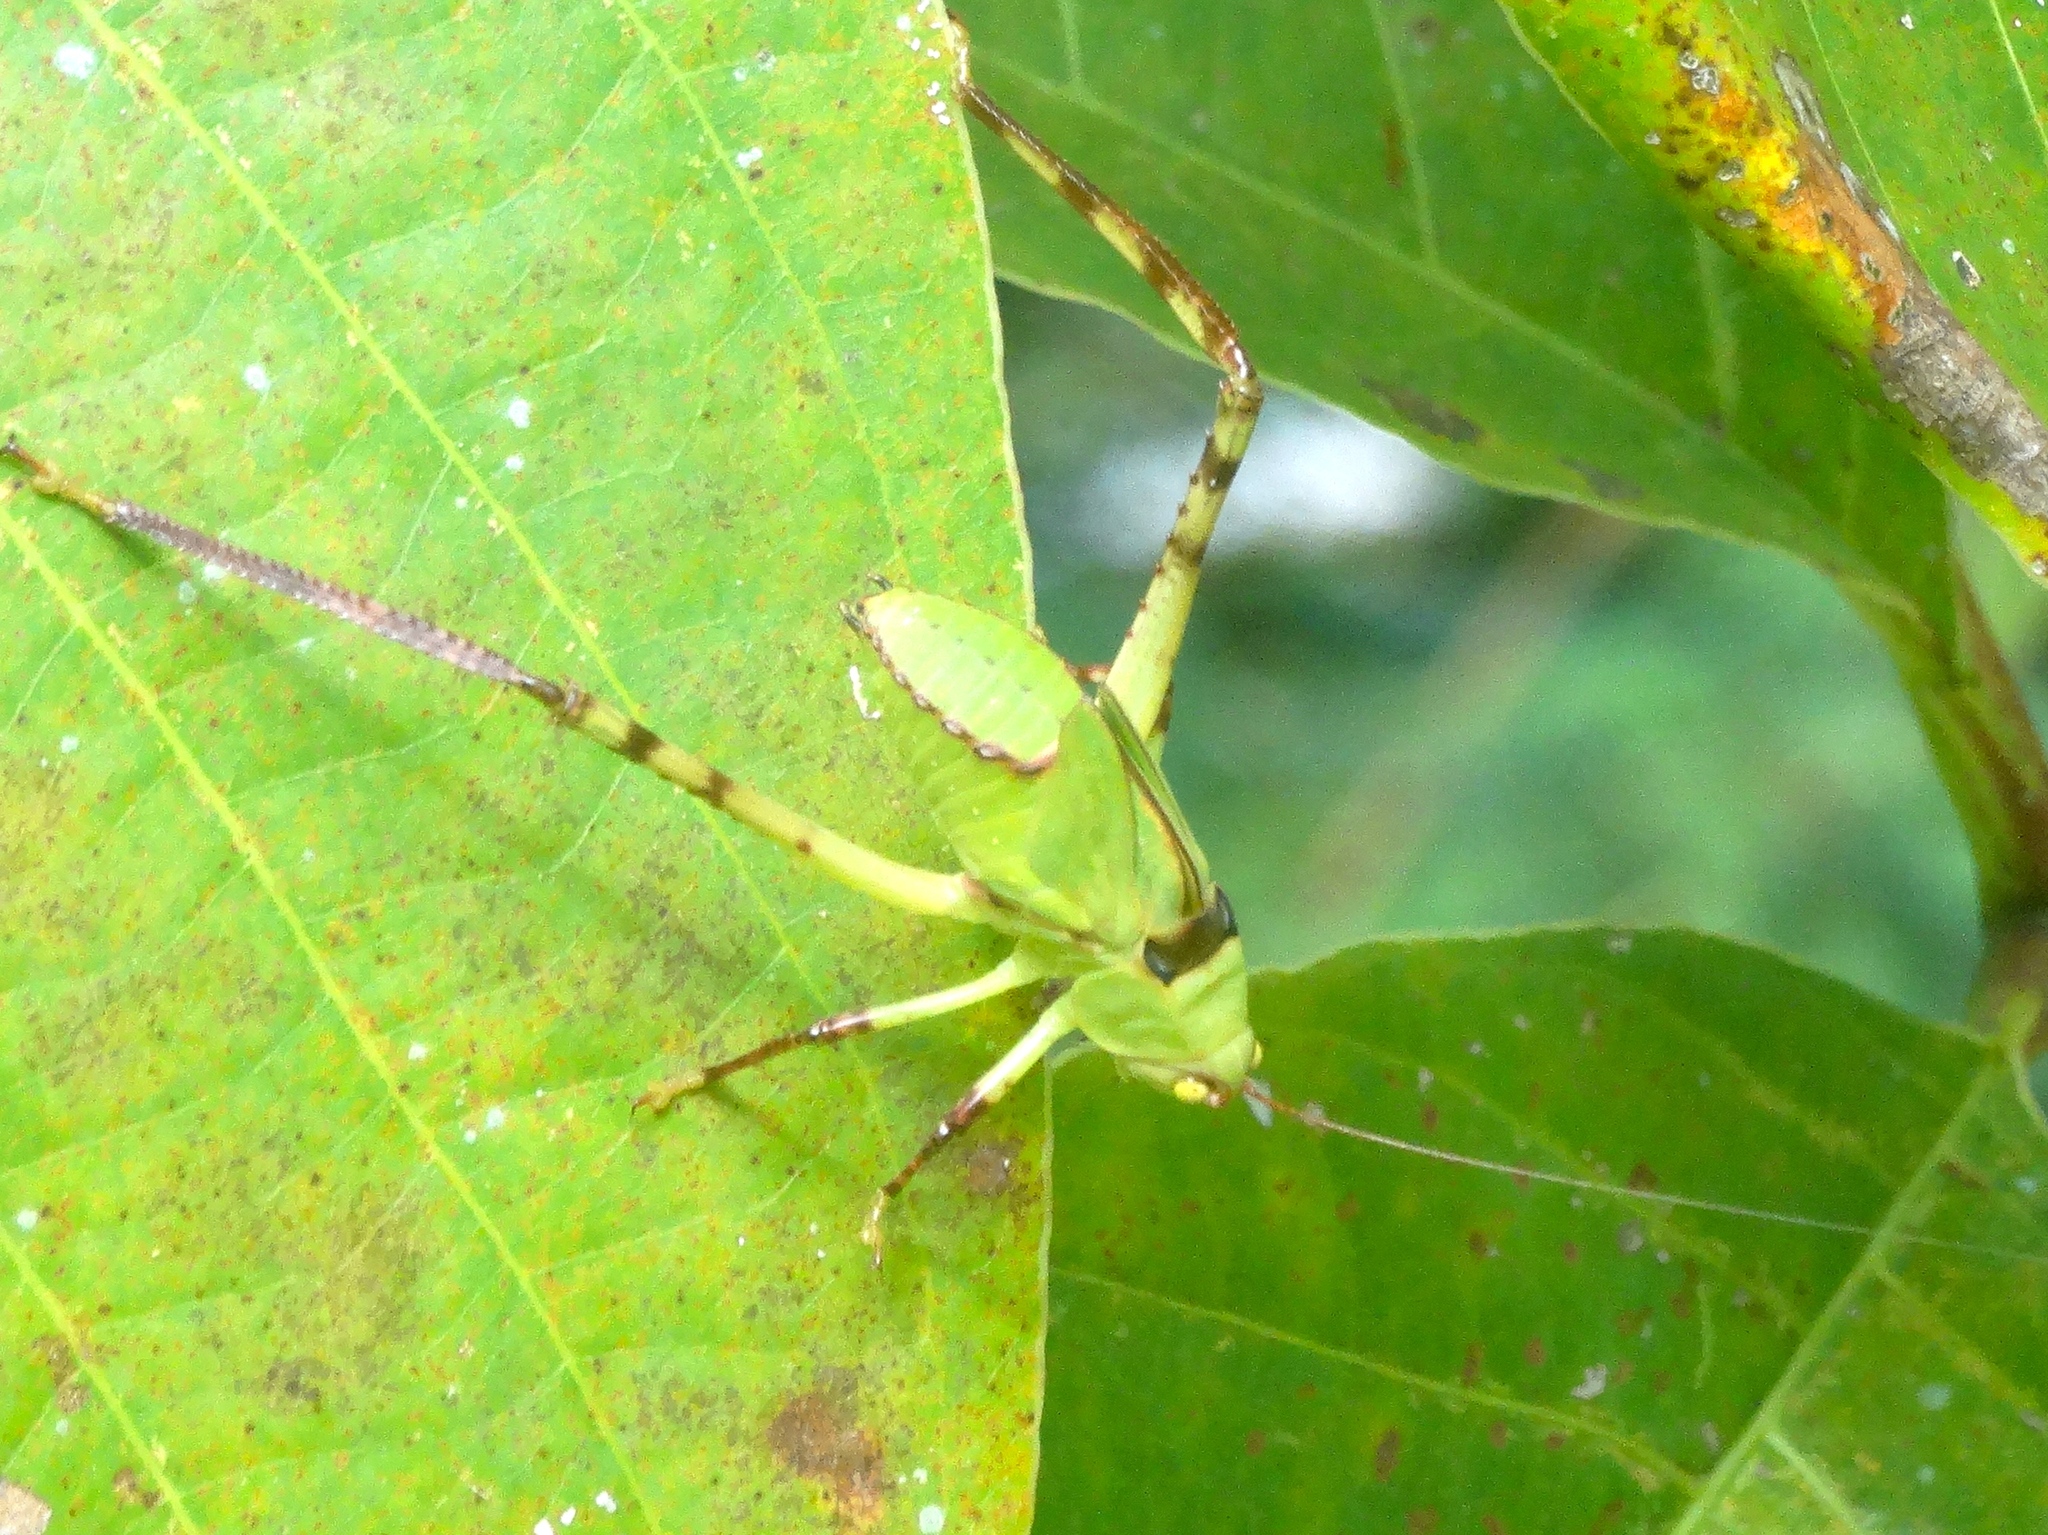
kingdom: Animalia
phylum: Arthropoda
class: Insecta
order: Orthoptera
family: Tettigoniidae
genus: Stilpnochlora
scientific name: Stilpnochlora
